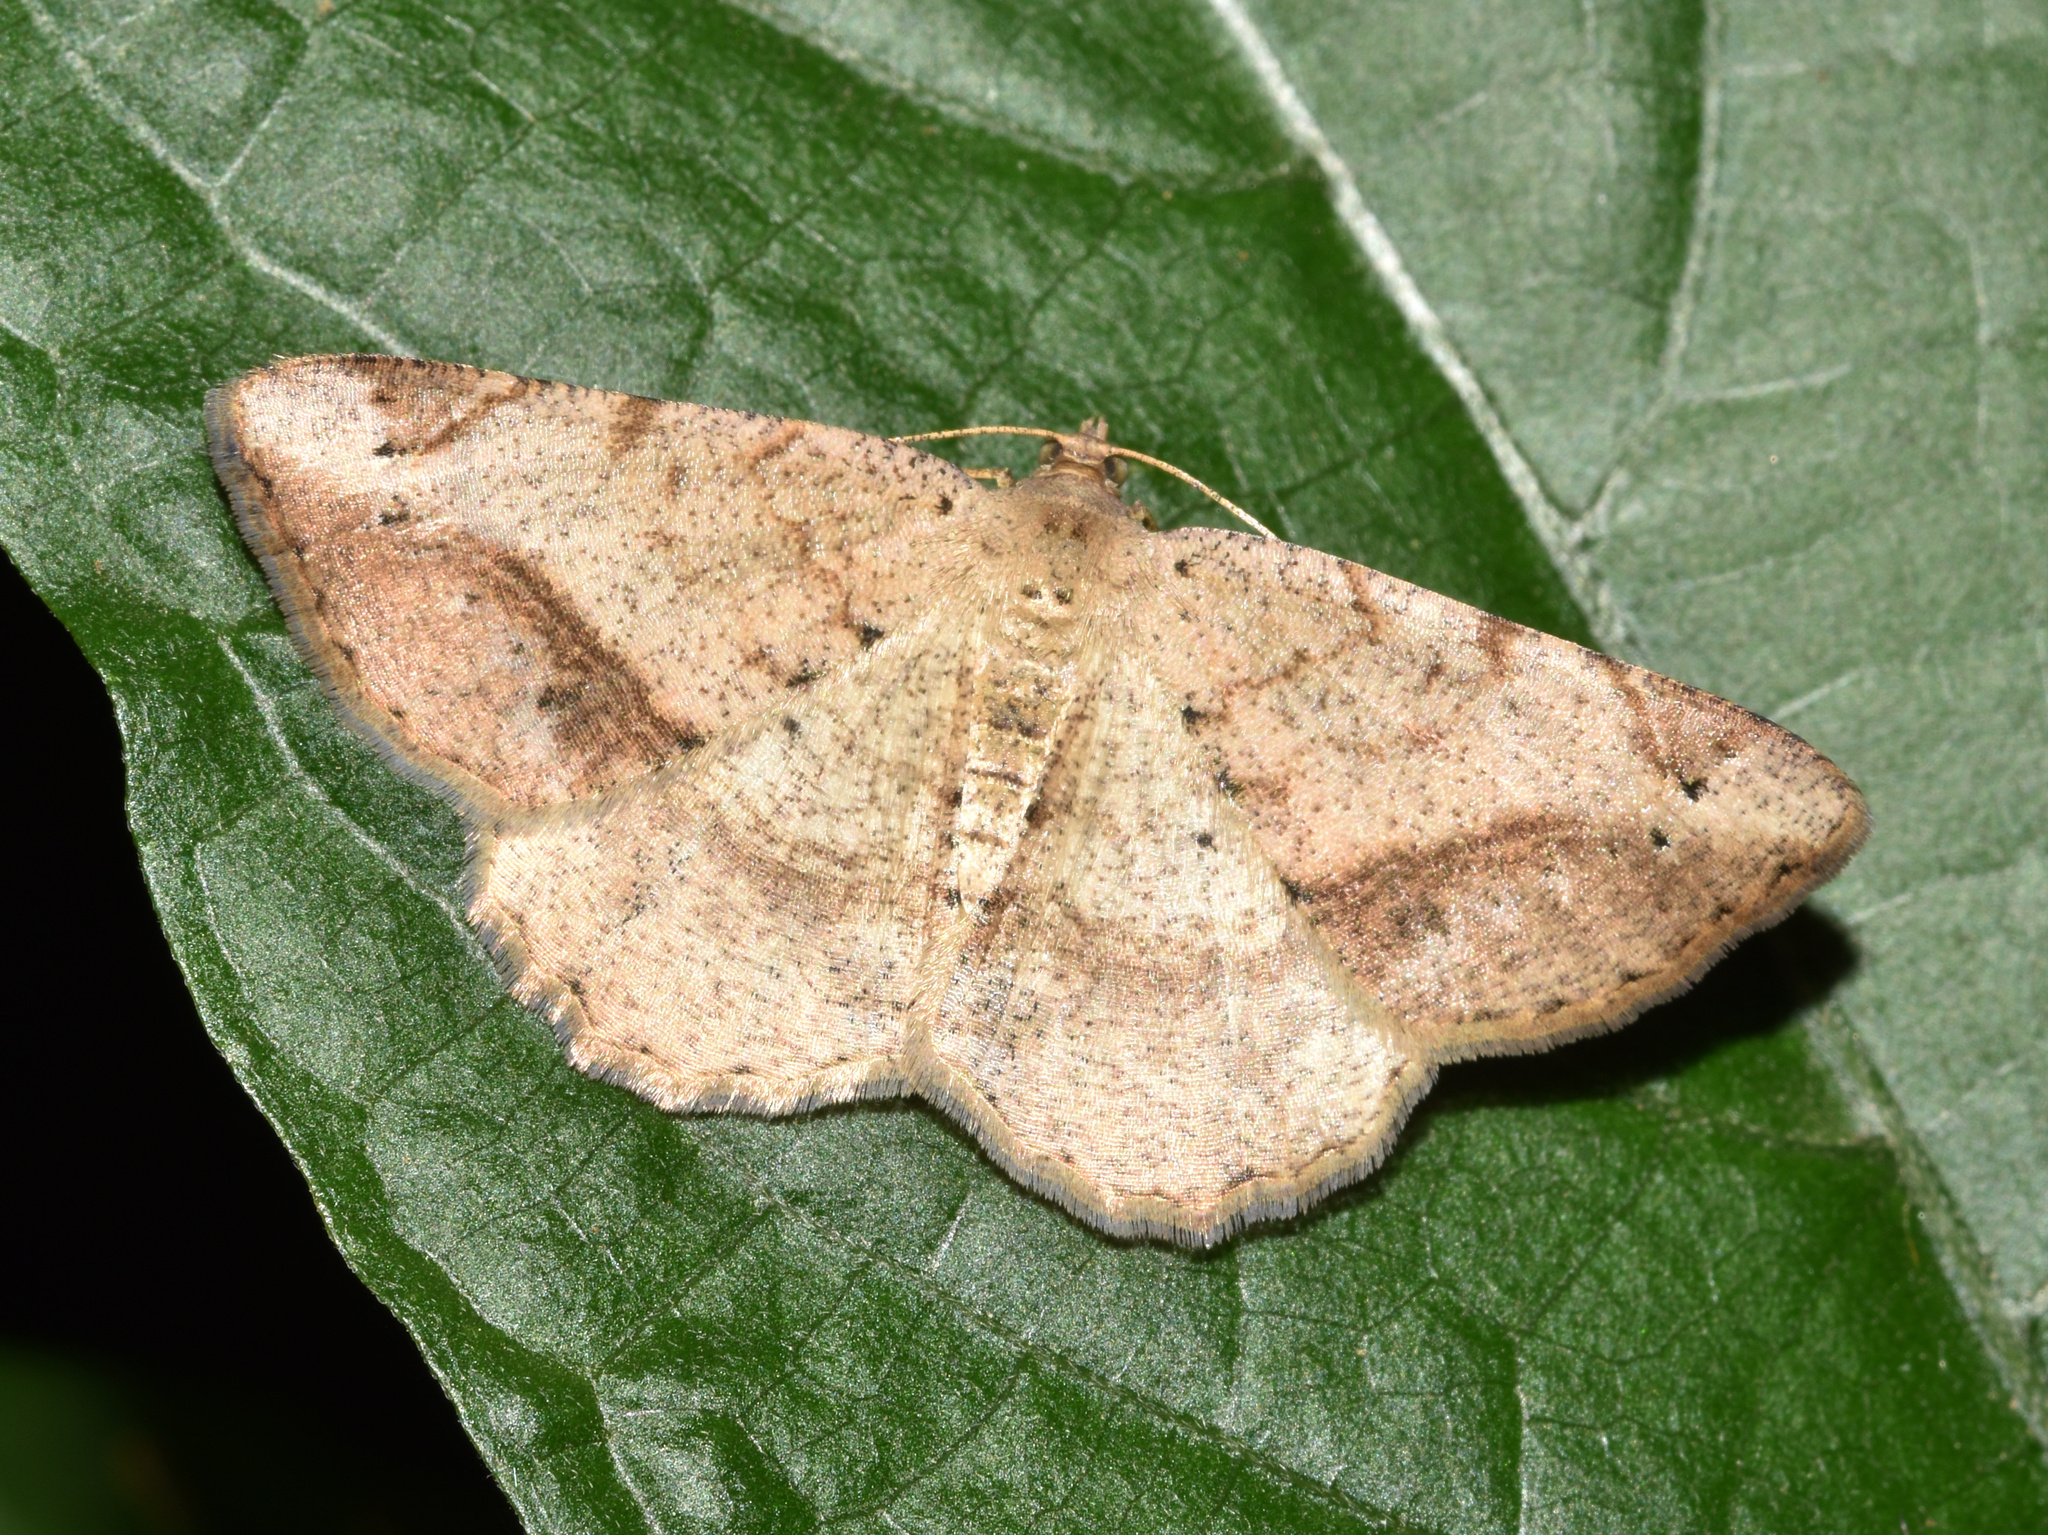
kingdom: Animalia
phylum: Arthropoda
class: Insecta
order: Lepidoptera
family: Geometridae
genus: Chiasmia
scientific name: Chiasmia brongusaria
